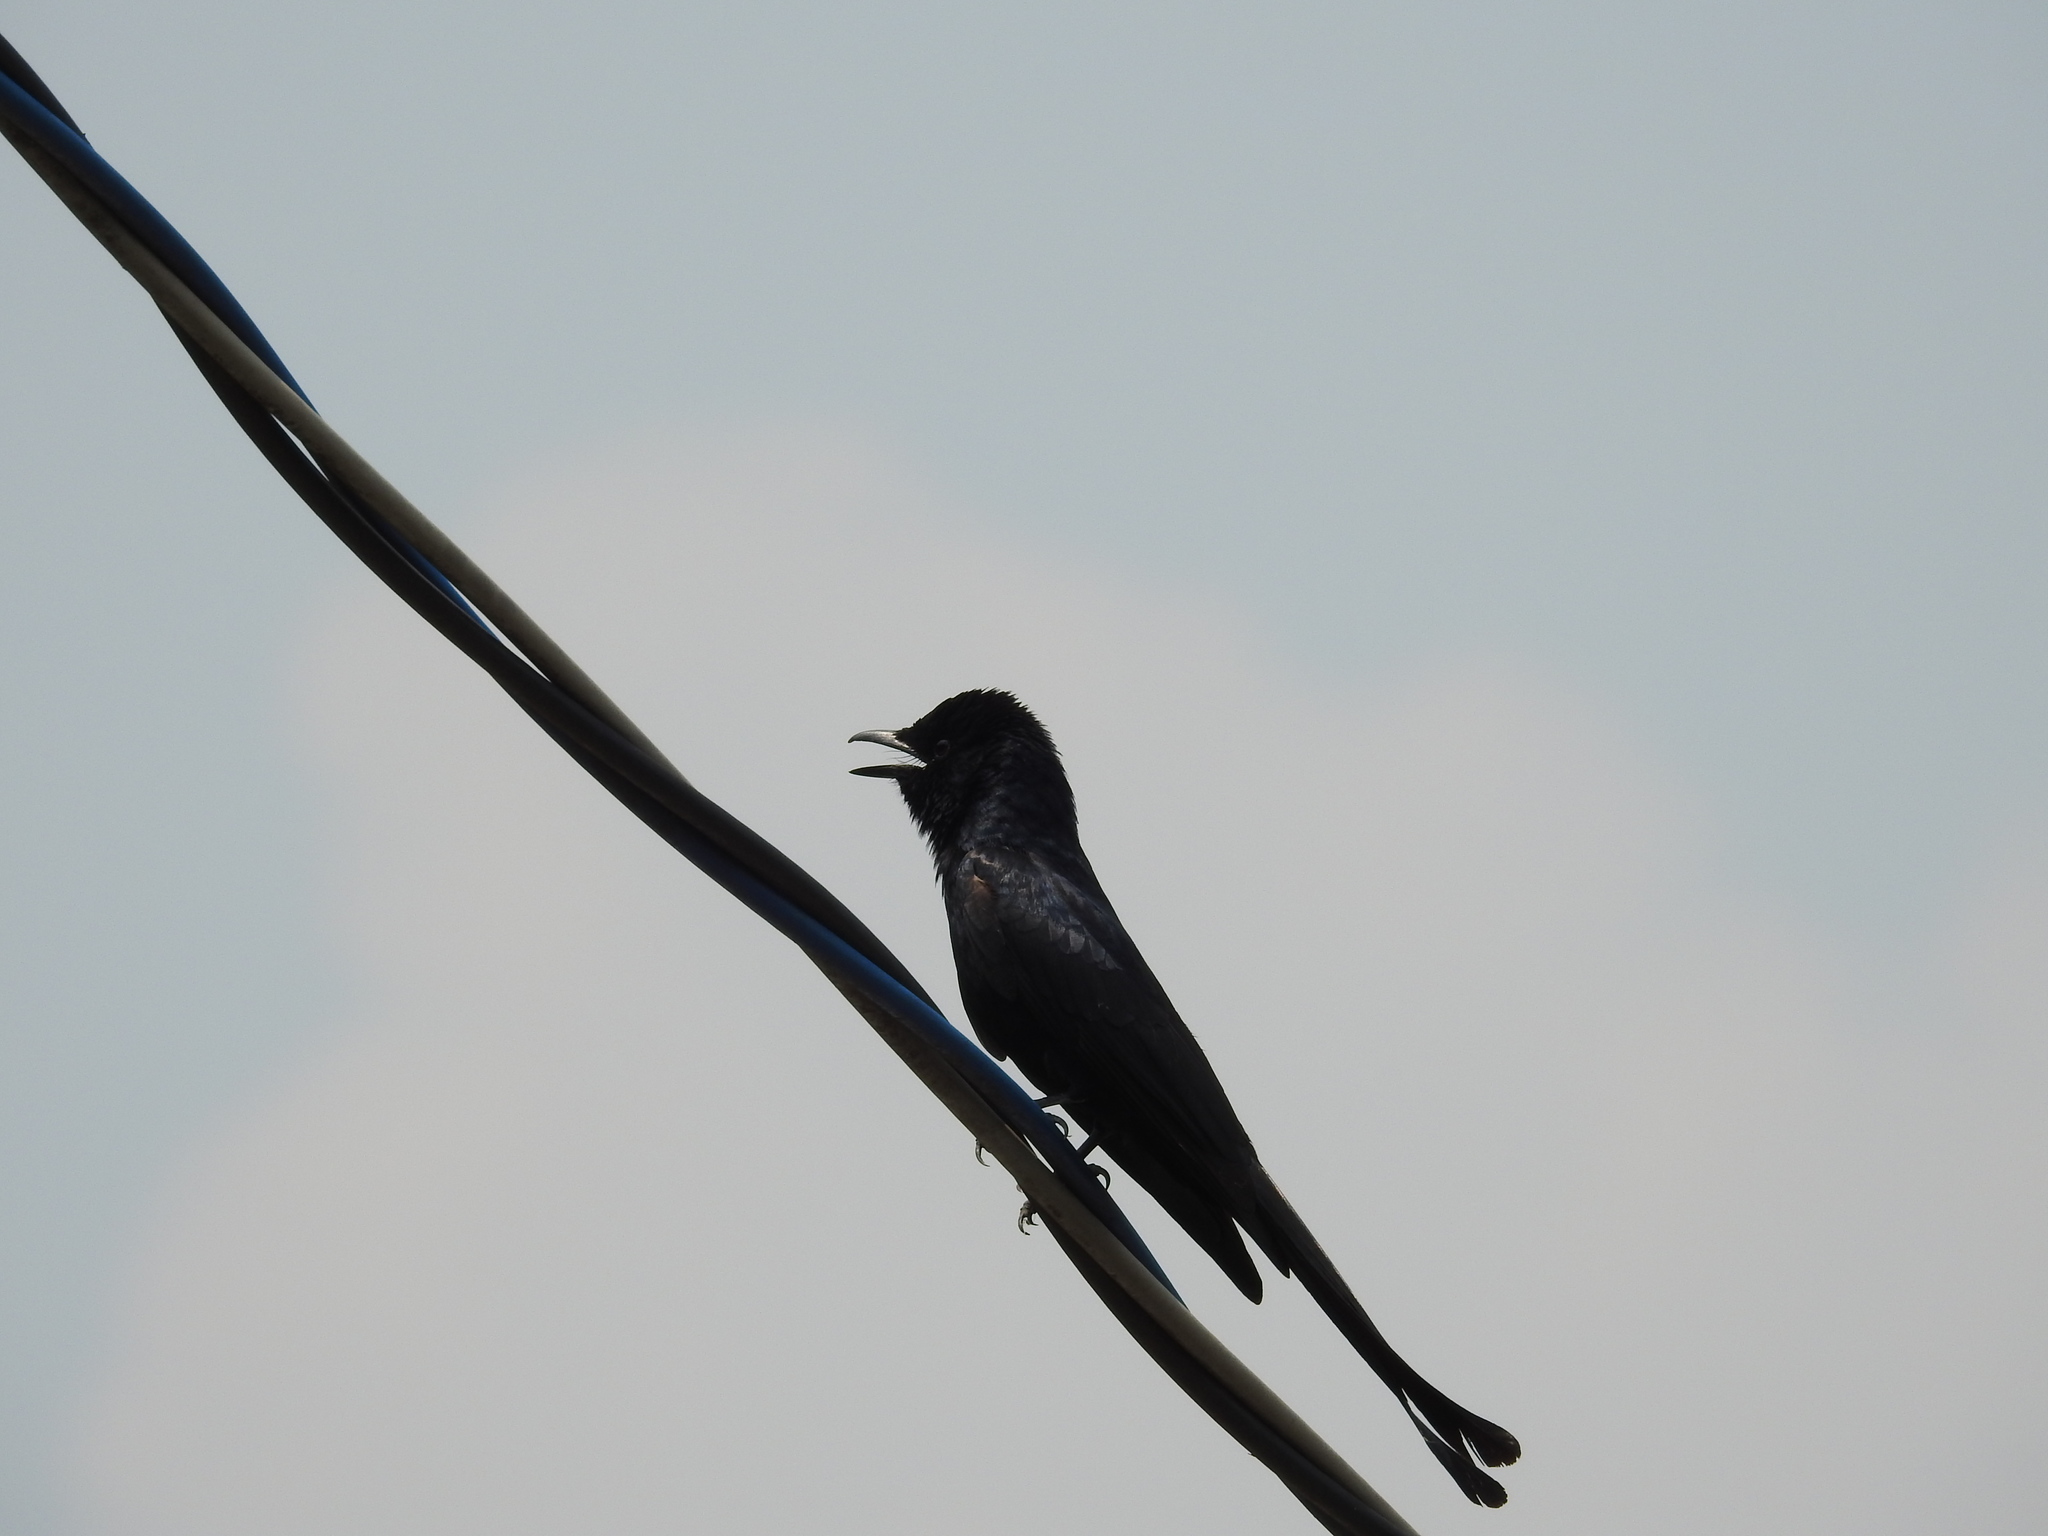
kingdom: Animalia
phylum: Chordata
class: Aves
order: Passeriformes
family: Dicruridae
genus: Dicrurus
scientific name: Dicrurus macrocercus
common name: Black drongo
